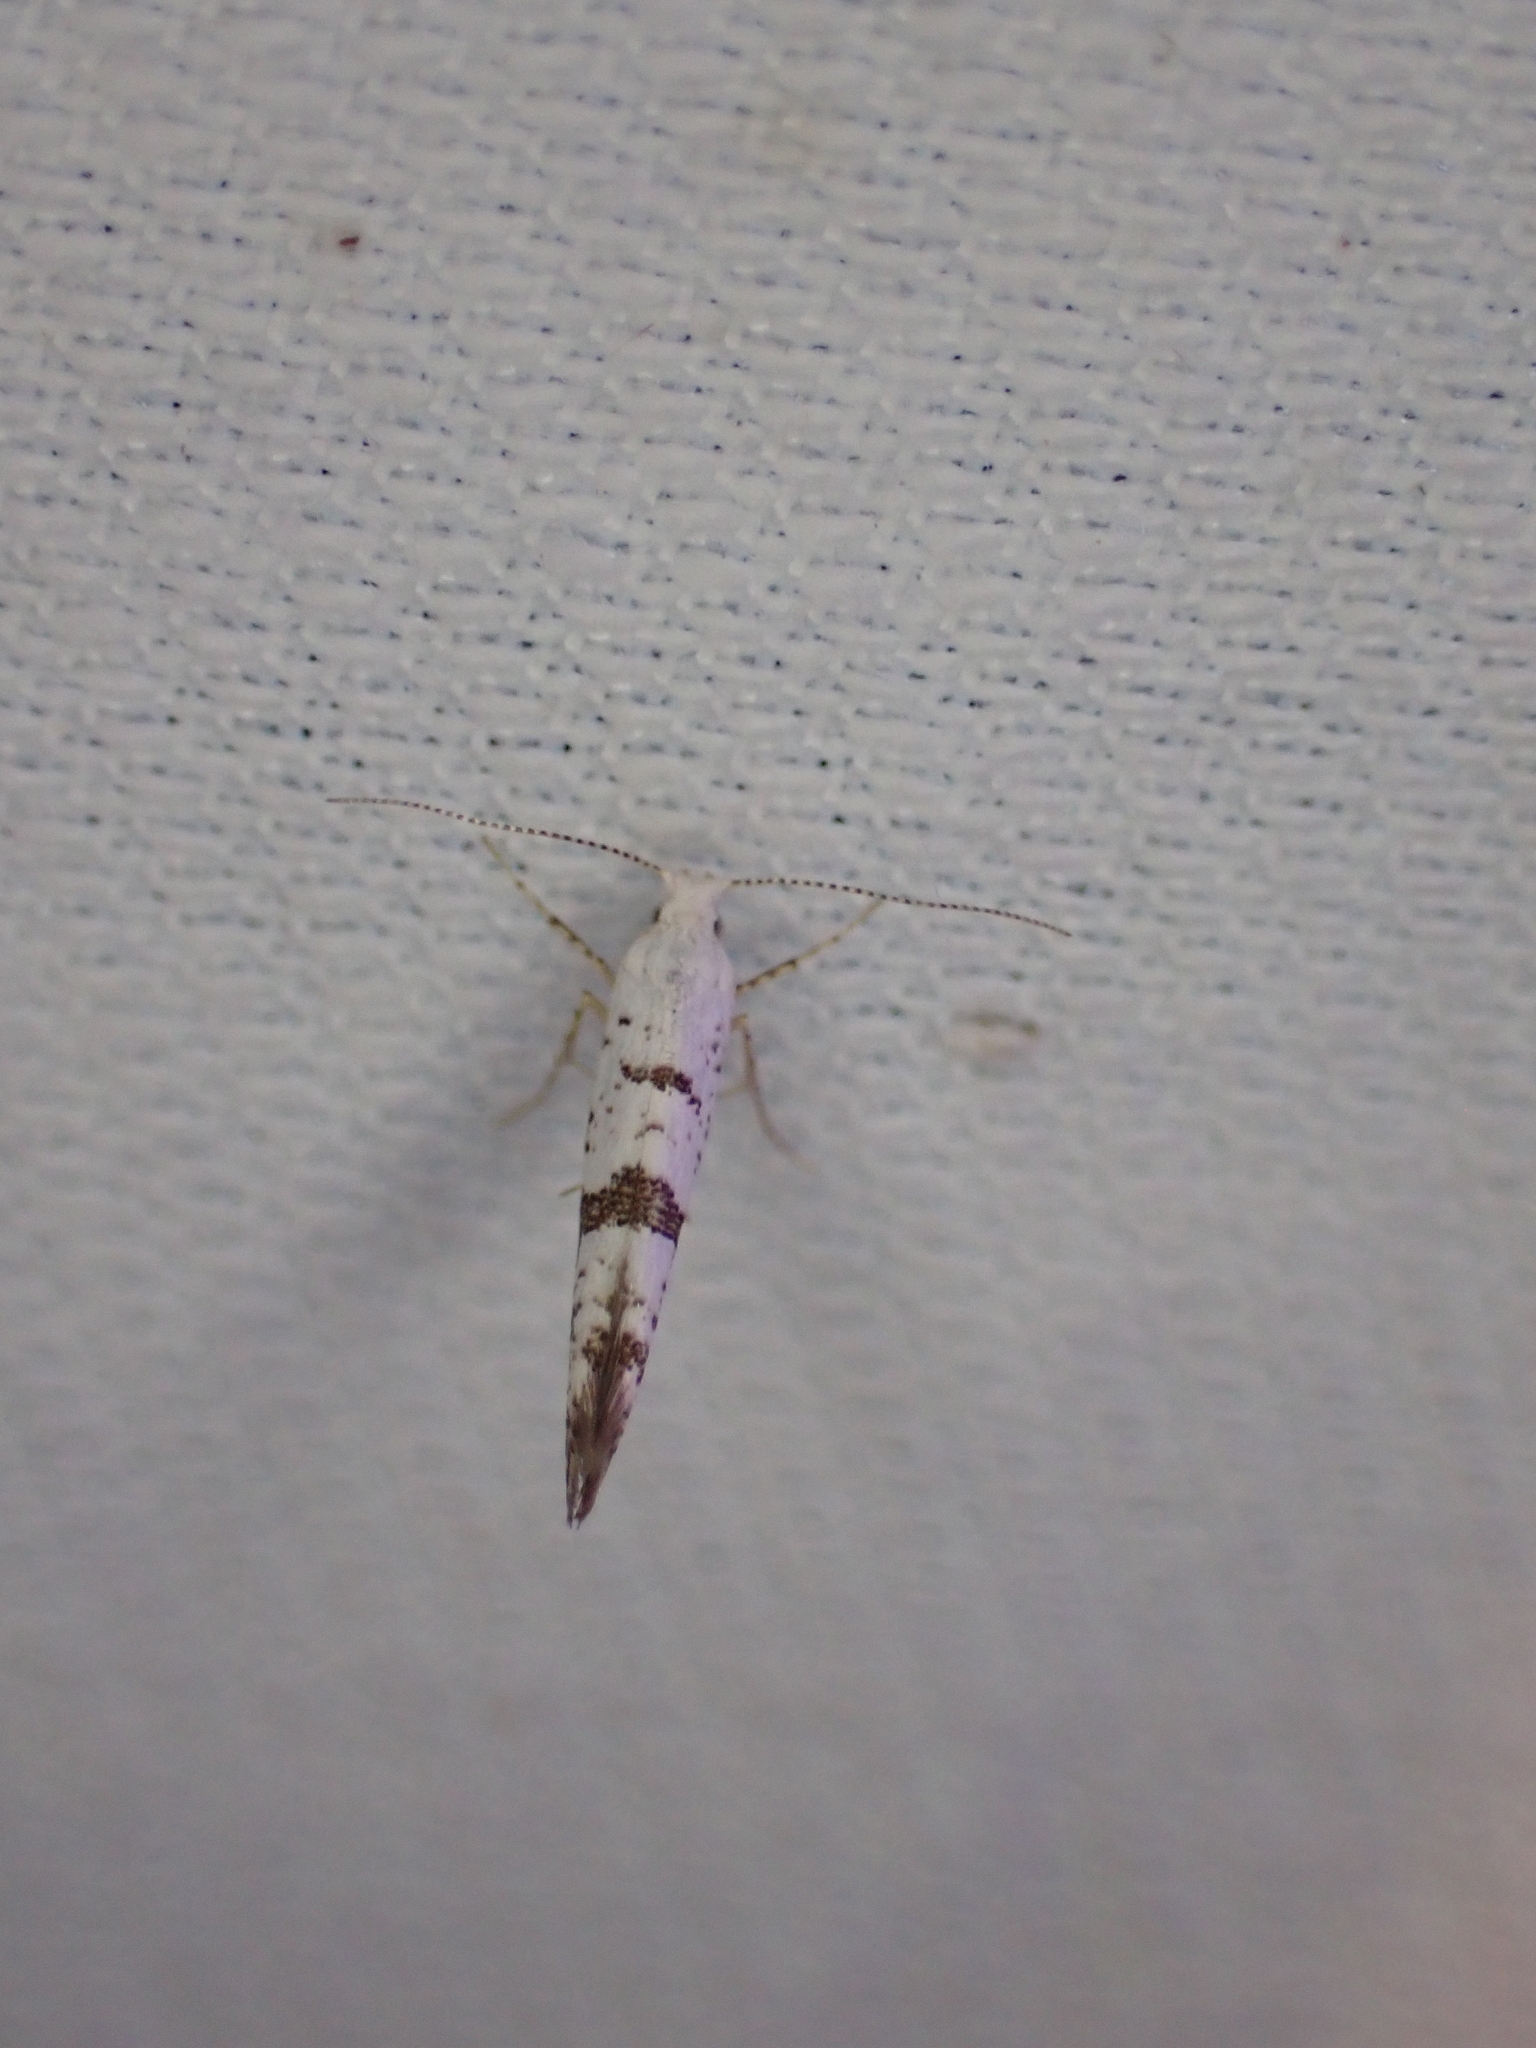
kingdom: Animalia
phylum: Arthropoda
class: Insecta
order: Lepidoptera
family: Argyresthiidae
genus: Argyresthia
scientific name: Argyresthia curvella
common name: Brindled argent
